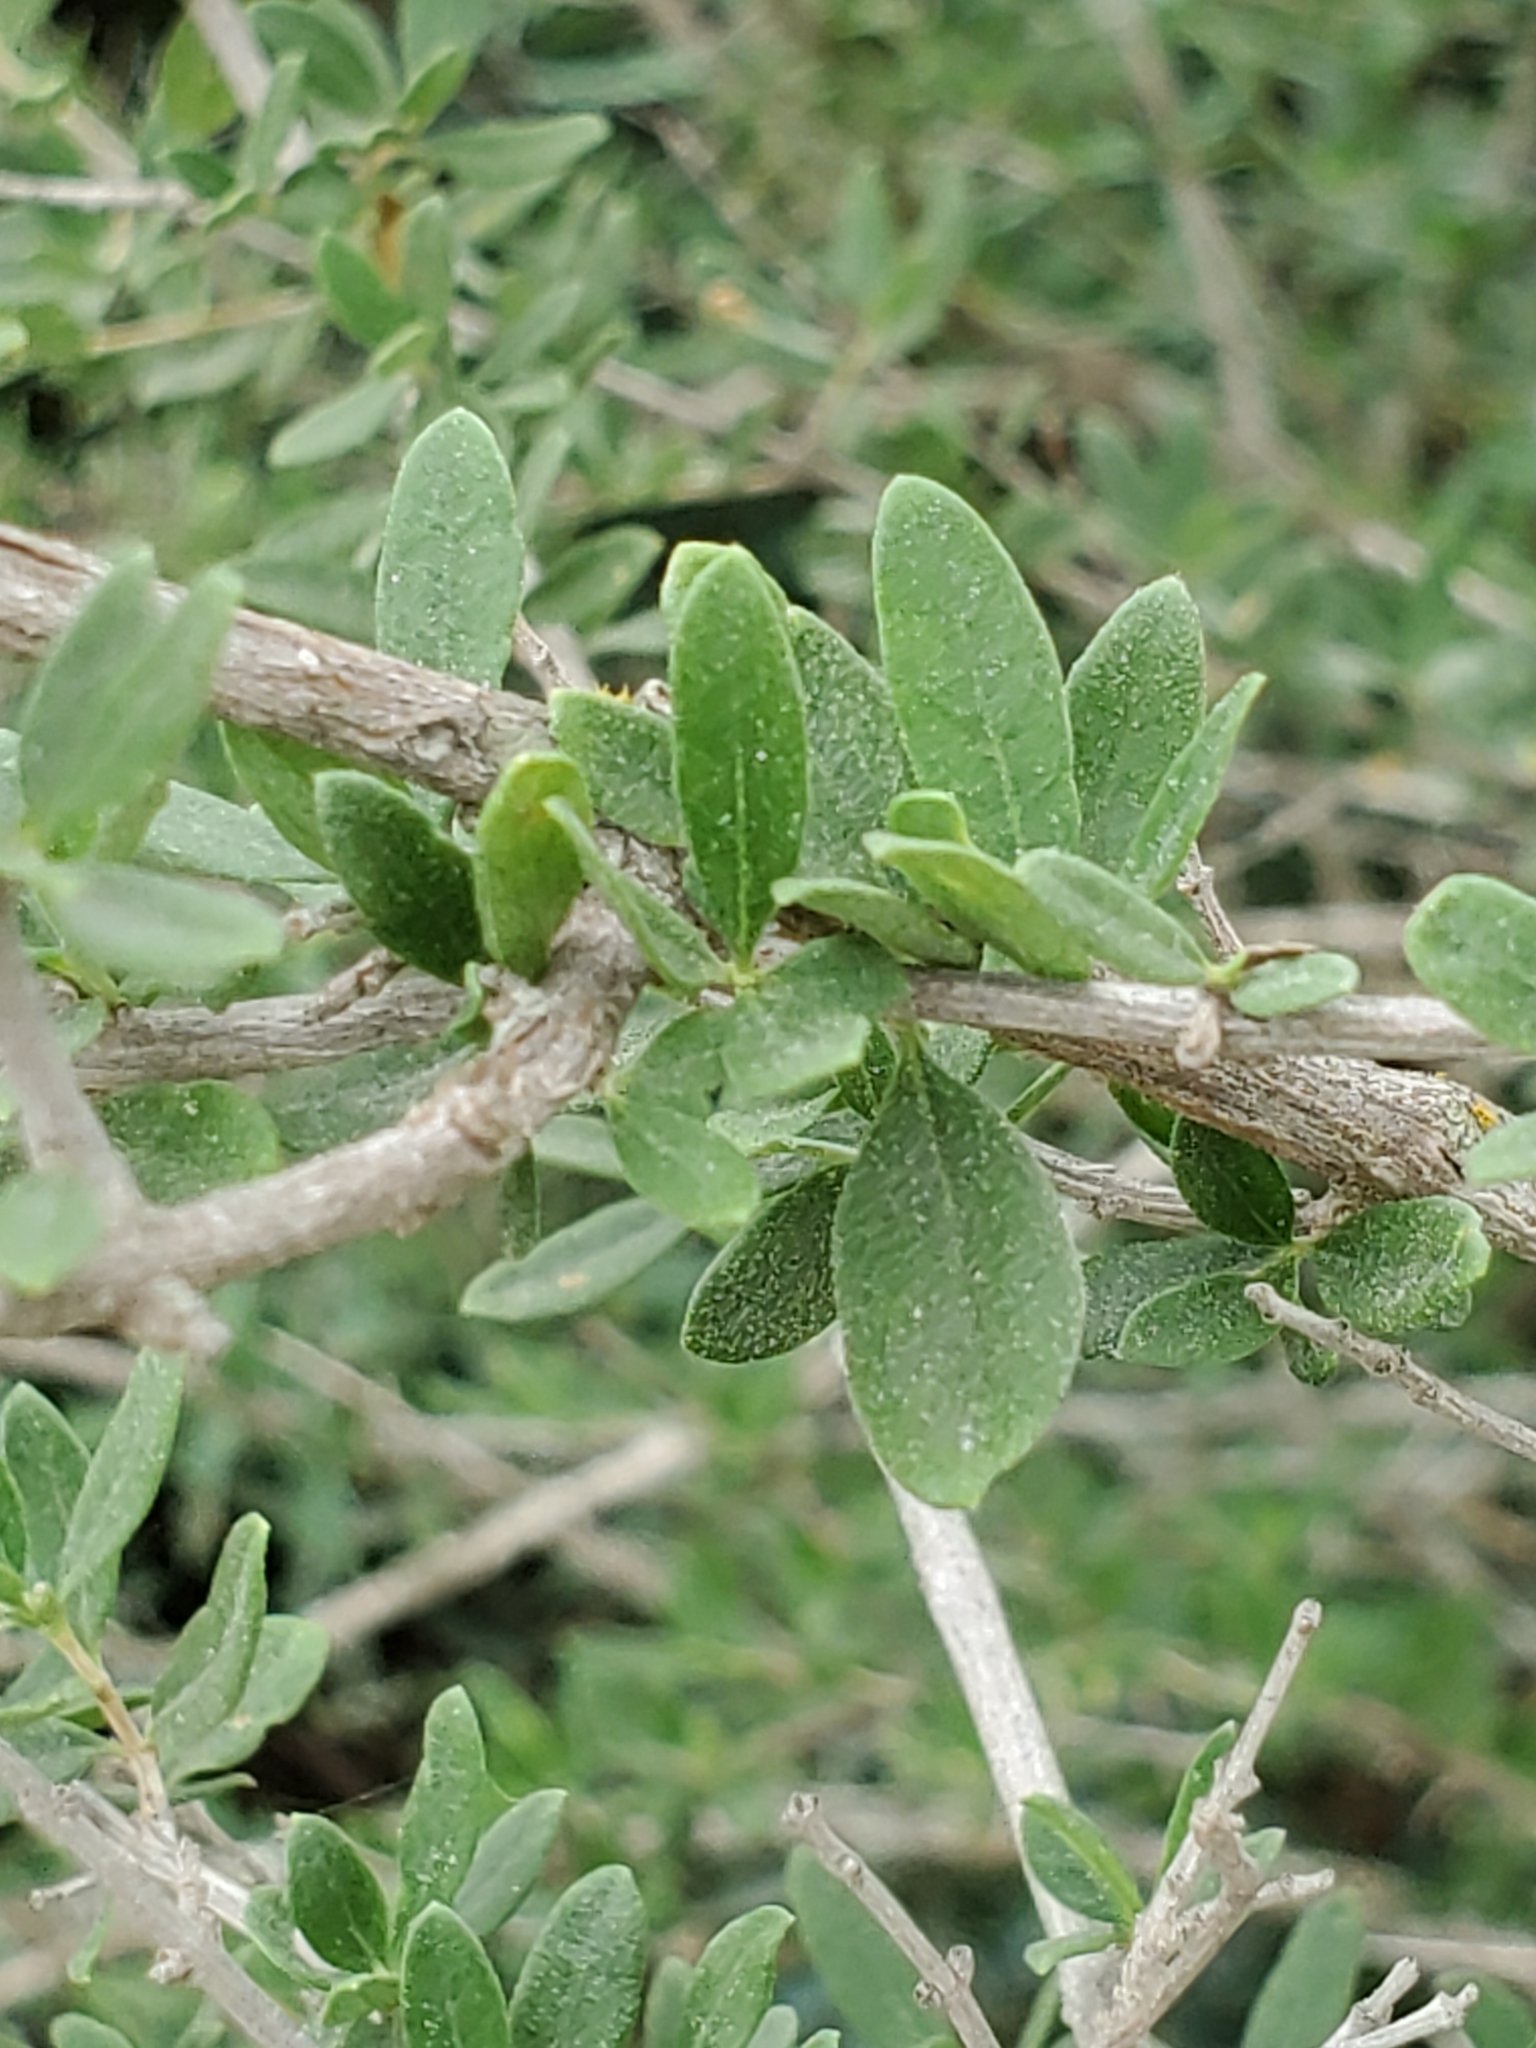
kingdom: Plantae
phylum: Tracheophyta
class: Magnoliopsida
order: Lamiales
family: Verbenaceae
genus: Aloysia
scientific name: Aloysia gratissima
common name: Common bee-brush
